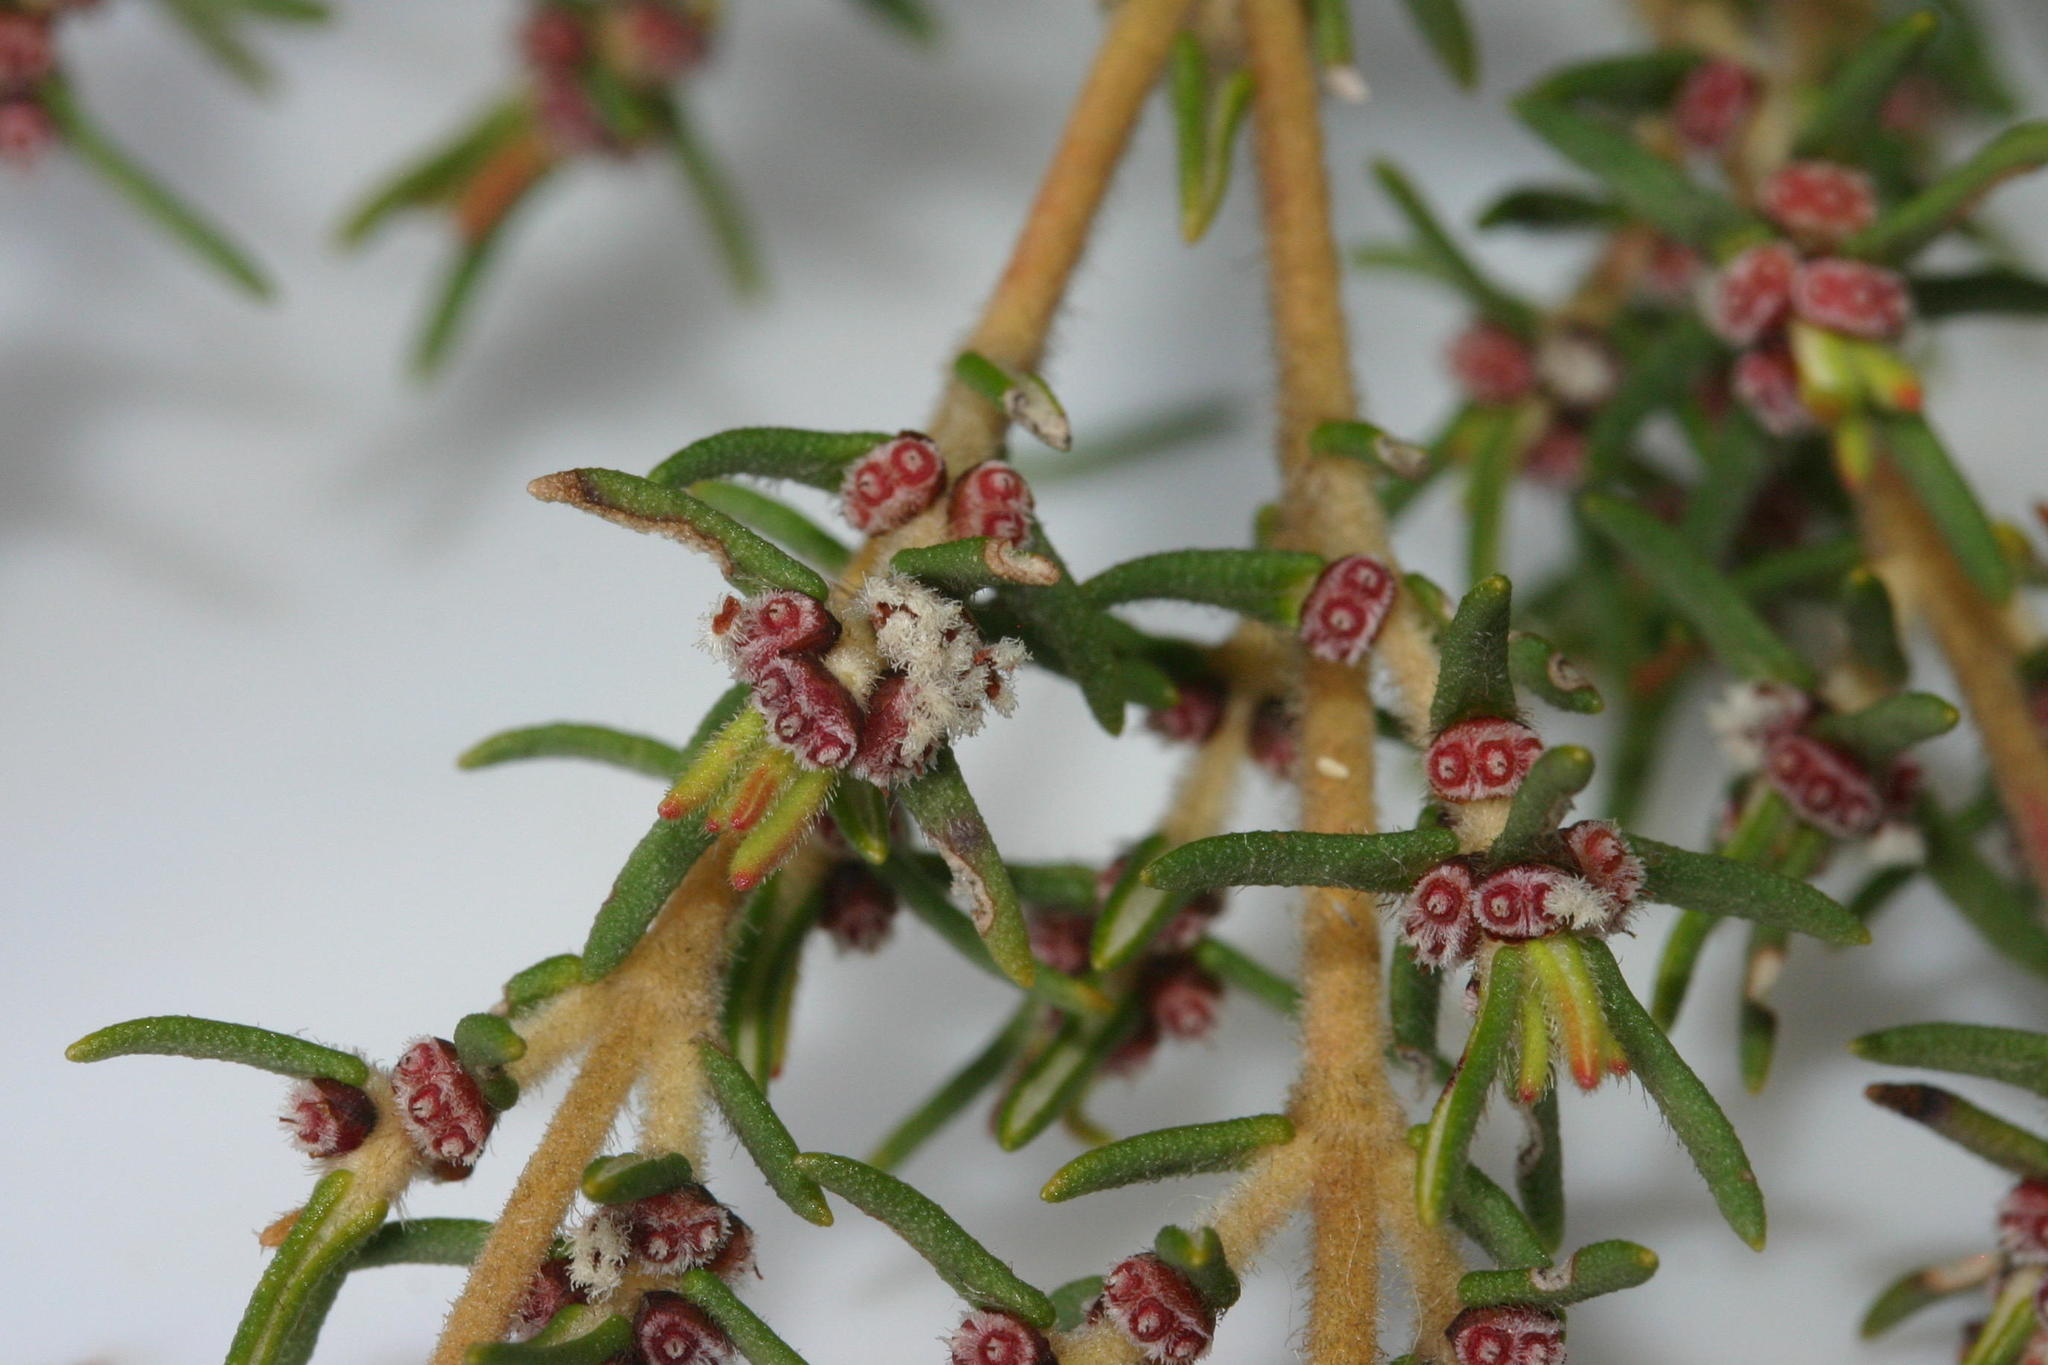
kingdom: Plantae
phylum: Tracheophyta
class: Magnoliopsida
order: Cornales
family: Grubbiaceae
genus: Grubbia
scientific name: Grubbia rosmarinifolia
